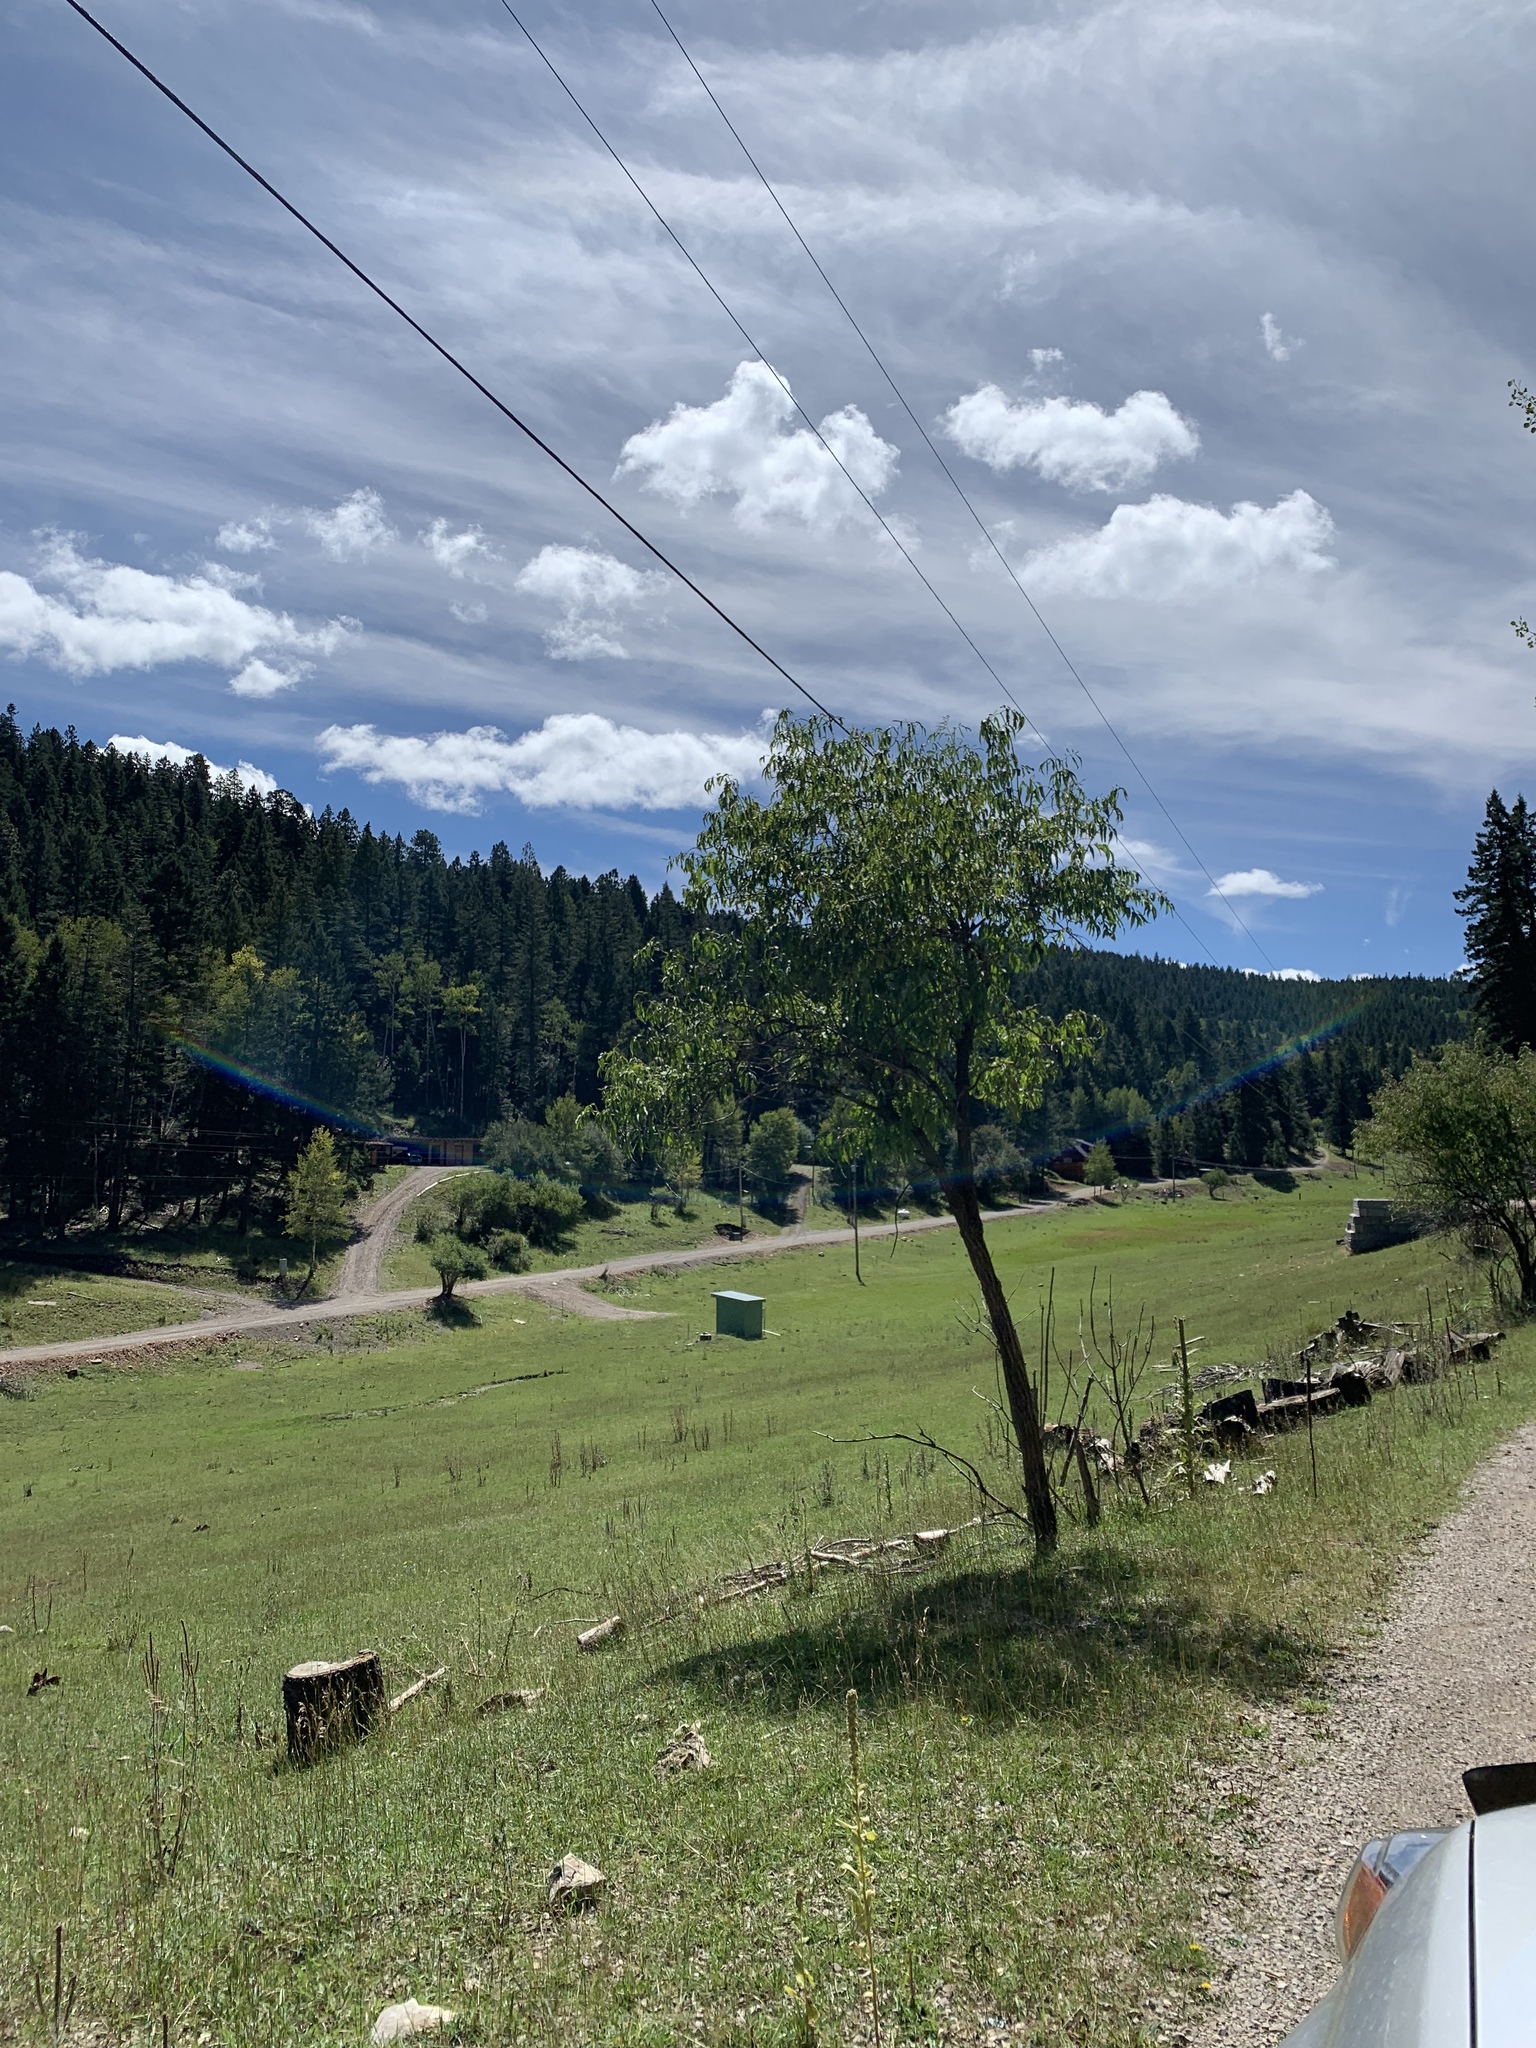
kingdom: Plantae
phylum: Tracheophyta
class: Magnoliopsida
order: Dipsacales
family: Viburnaceae
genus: Sambucus
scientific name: Sambucus cerulea
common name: Blue elder
